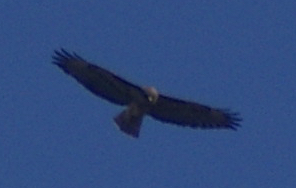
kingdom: Animalia
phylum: Chordata
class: Aves
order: Accipitriformes
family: Accipitridae
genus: Buteo
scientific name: Buteo jamaicensis
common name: Red-tailed hawk
